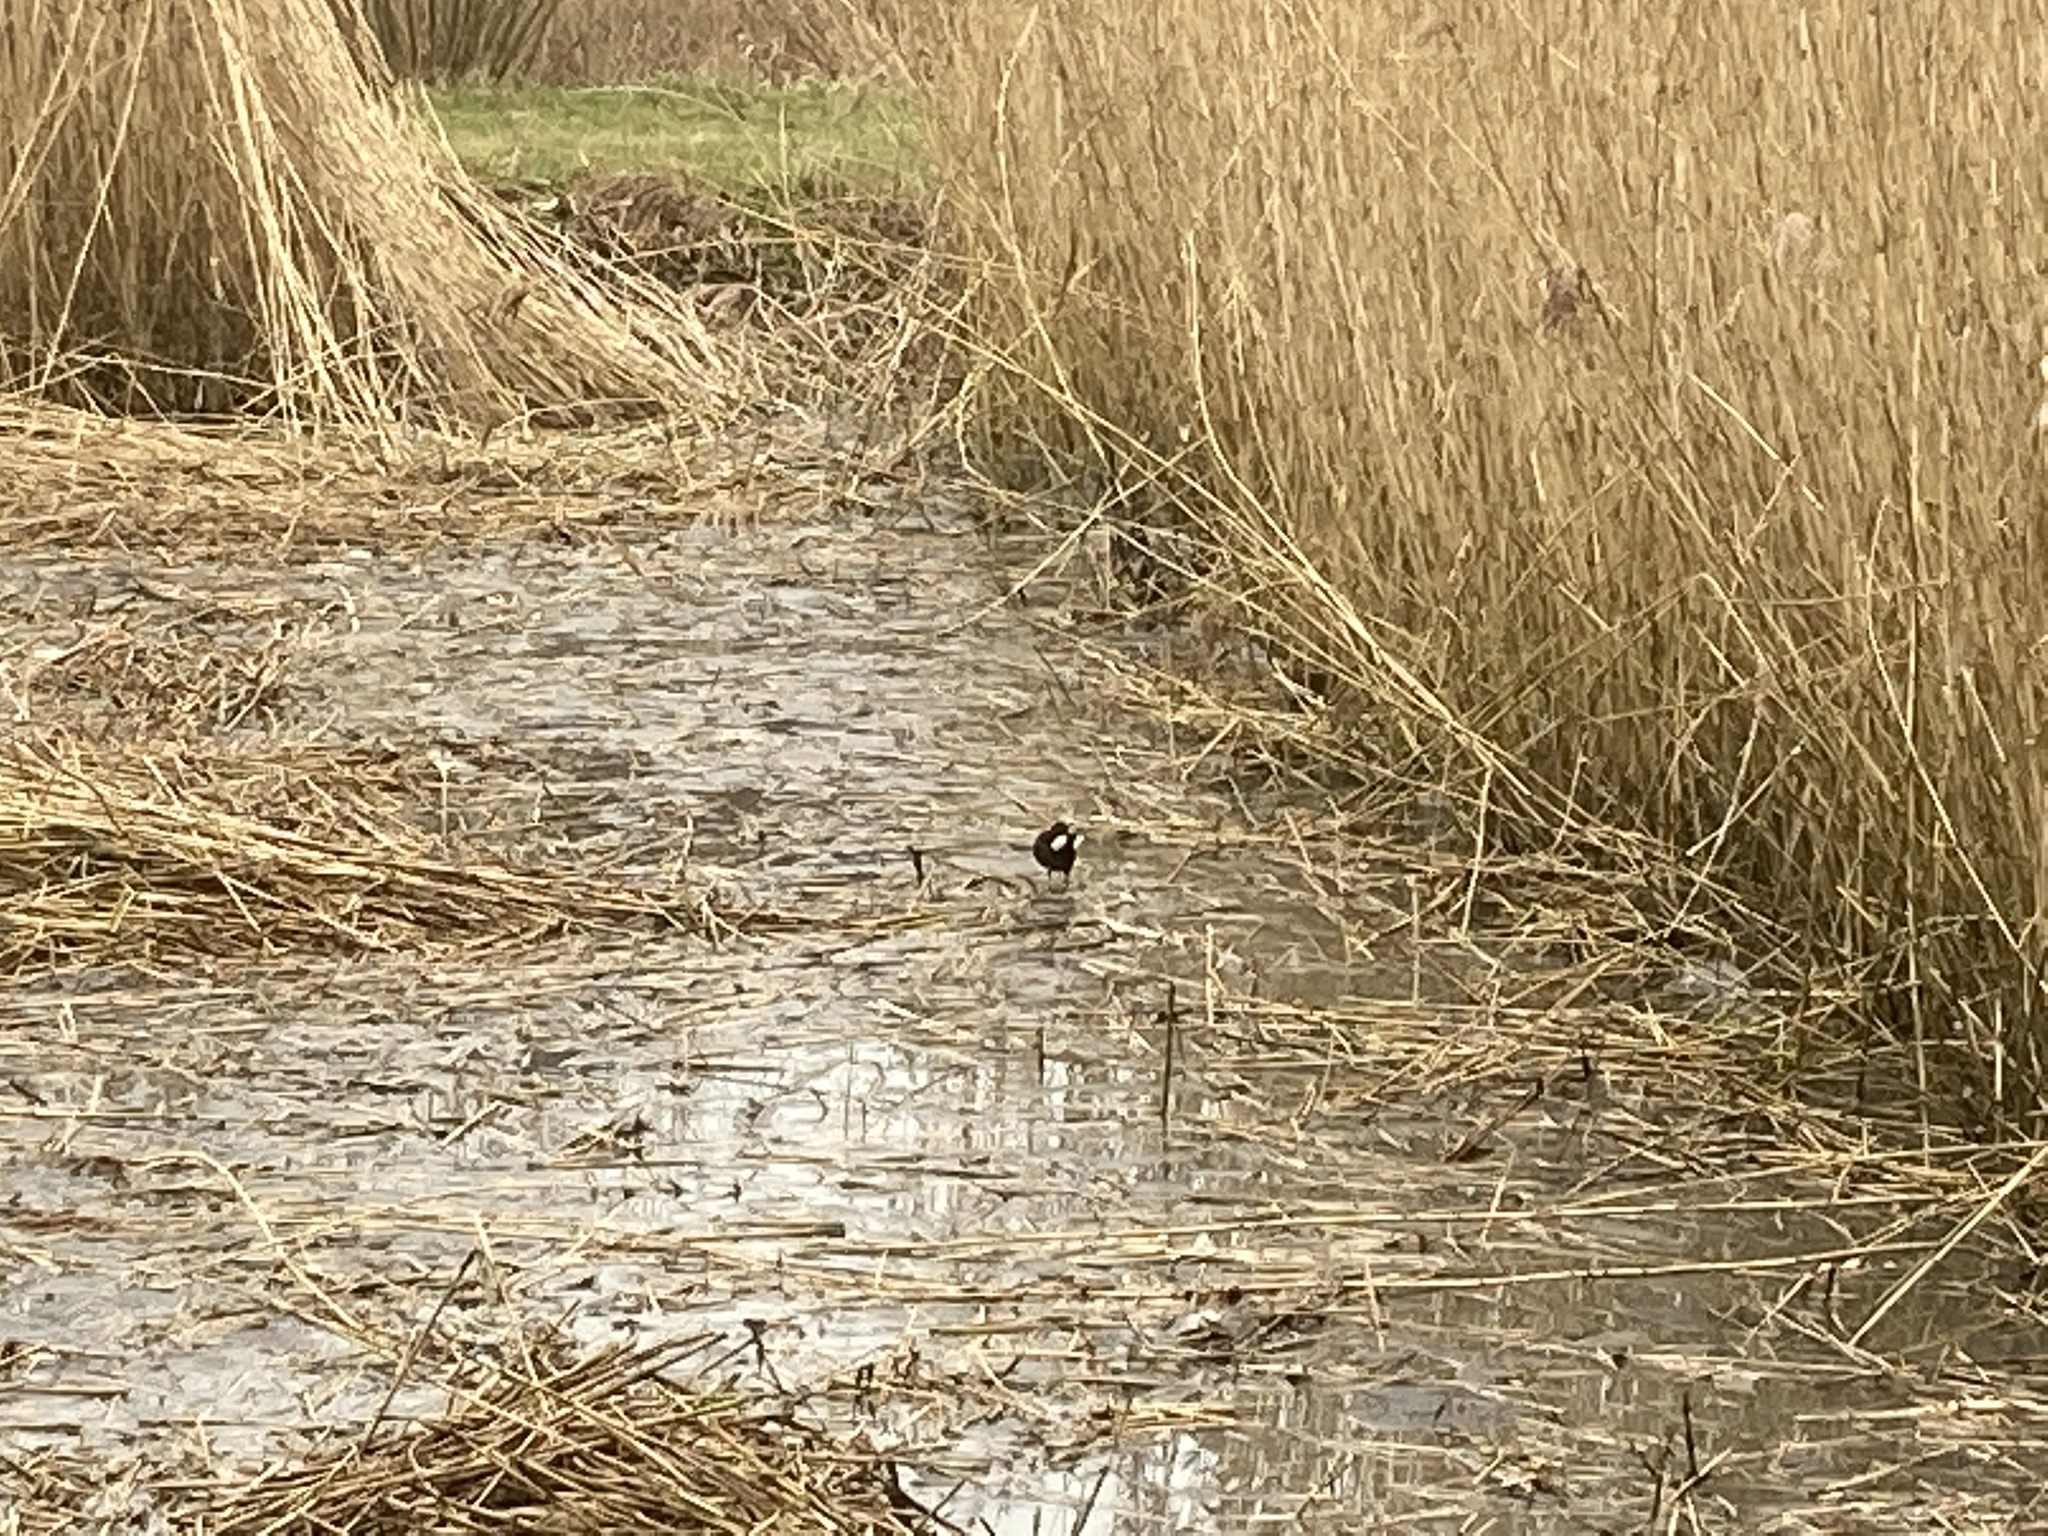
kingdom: Animalia
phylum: Chordata
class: Aves
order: Gruiformes
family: Rallidae
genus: Gallinula
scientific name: Gallinula chloropus
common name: Common moorhen
